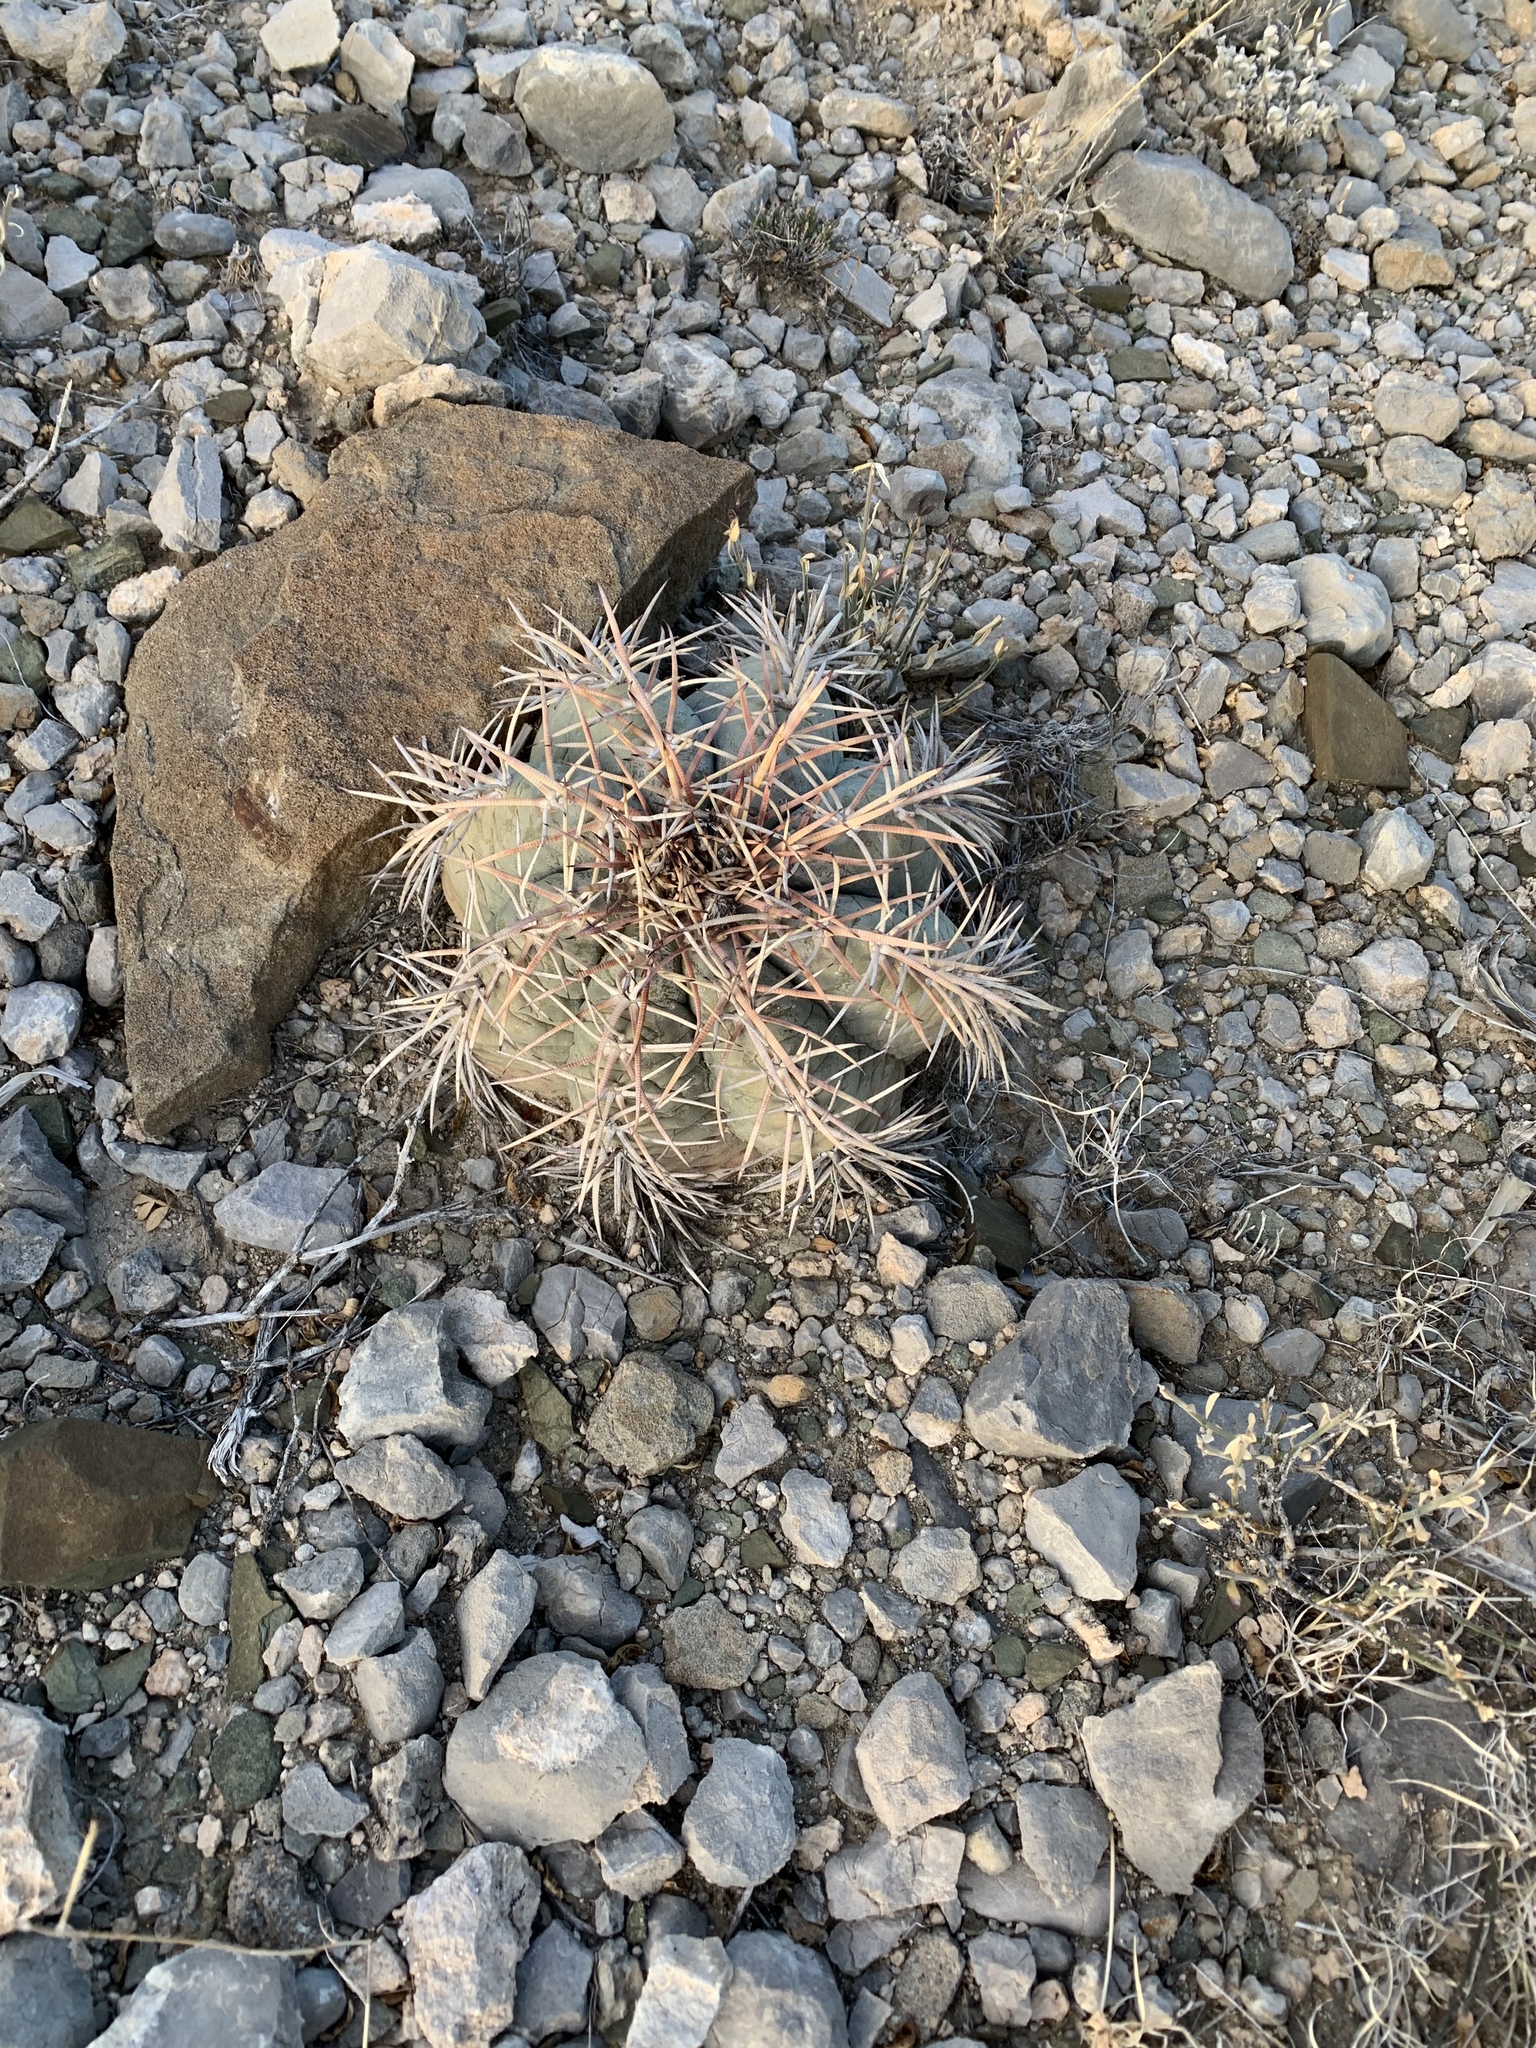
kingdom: Plantae
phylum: Tracheophyta
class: Magnoliopsida
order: Caryophyllales
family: Cactaceae
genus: Echinocactus
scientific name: Echinocactus horizonthalonius
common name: Devilshead
